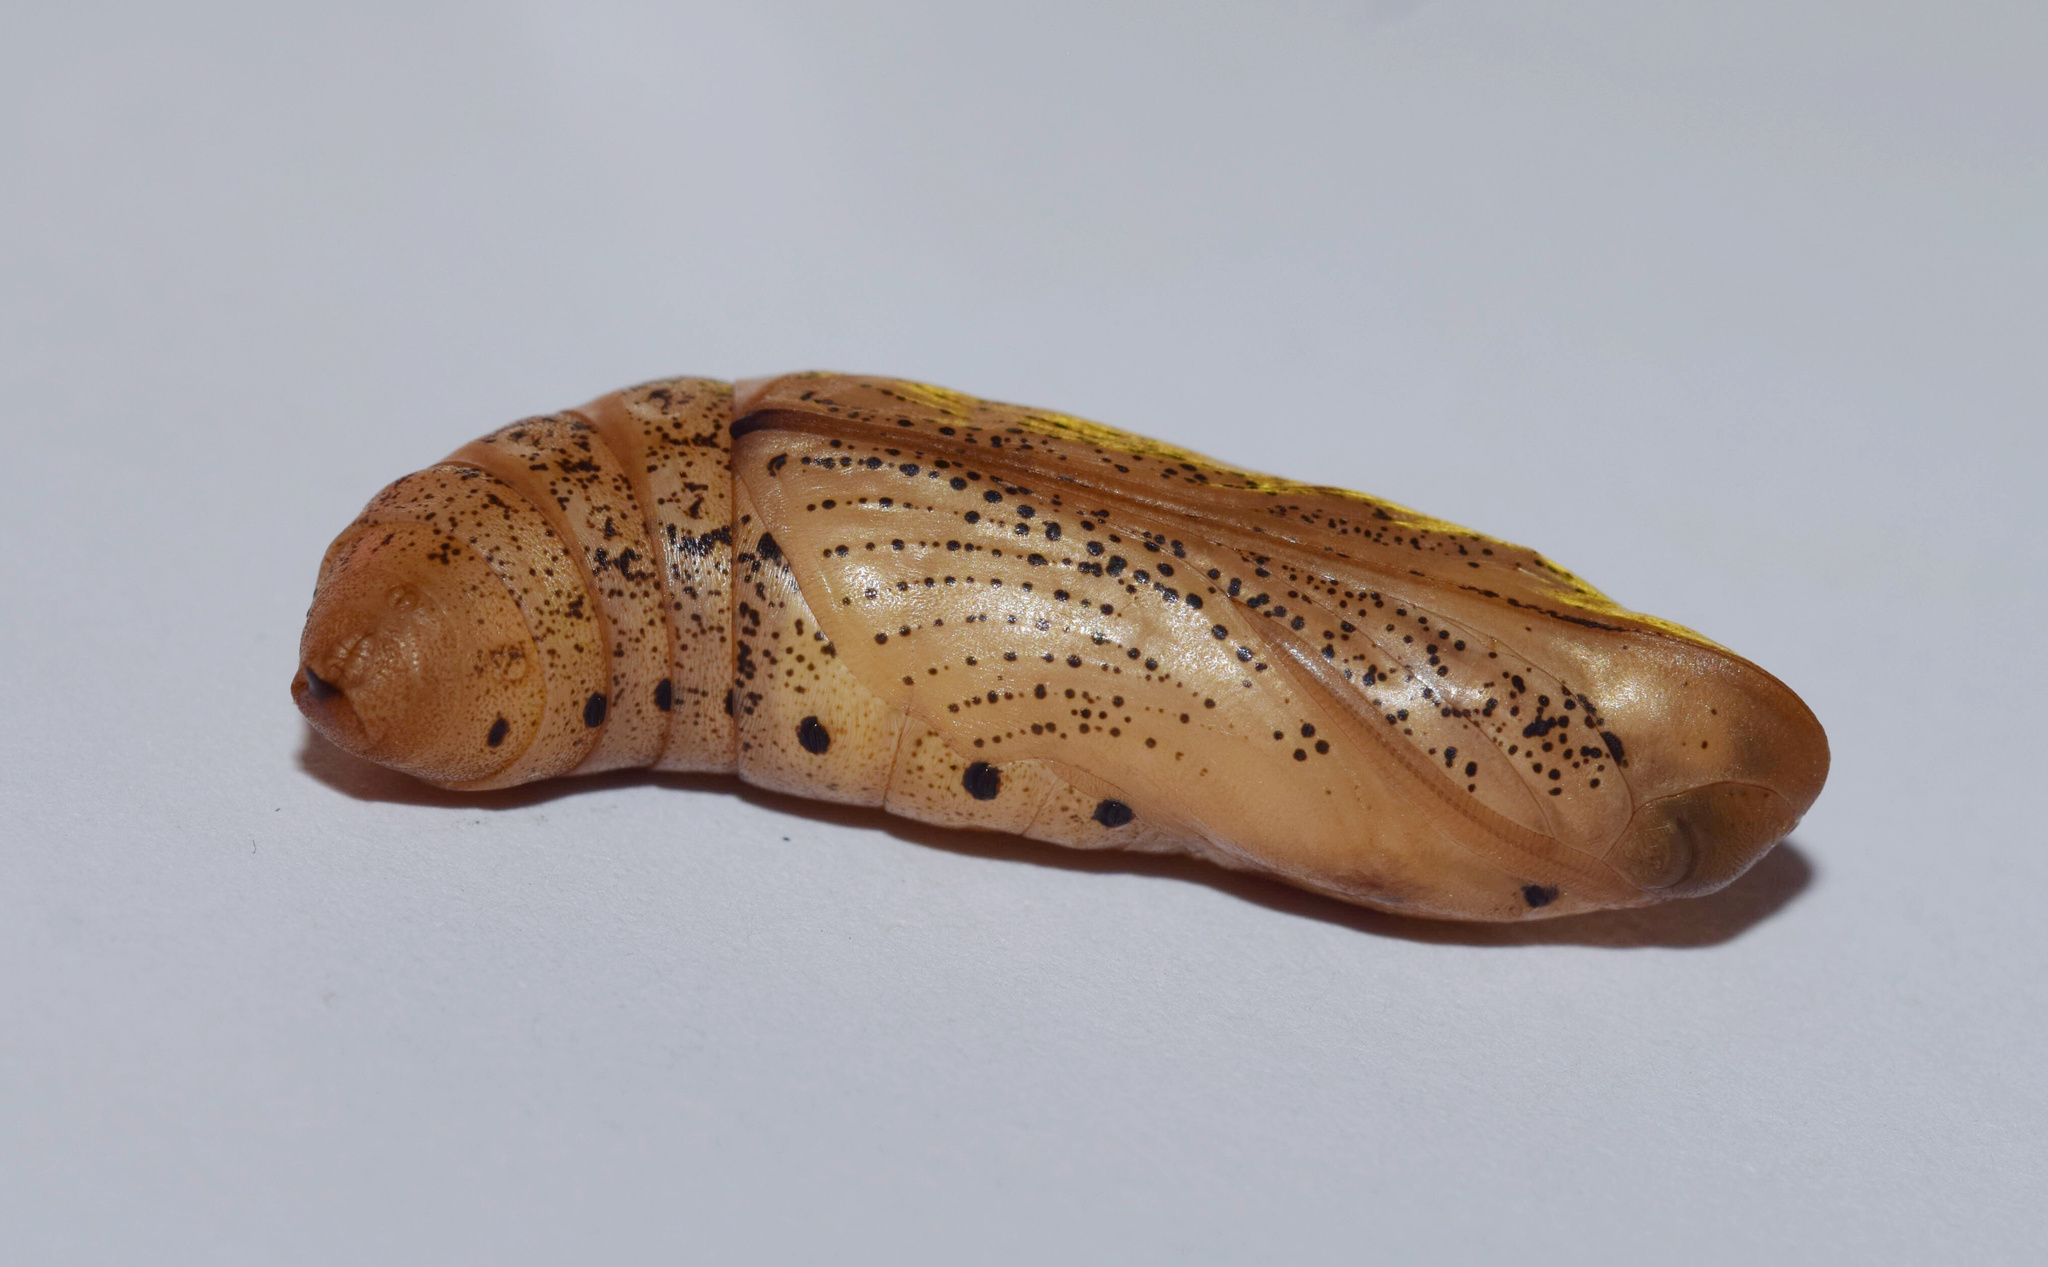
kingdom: Animalia
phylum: Arthropoda
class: Insecta
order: Lepidoptera
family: Sphingidae
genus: Basiothia
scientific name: Basiothia medea
